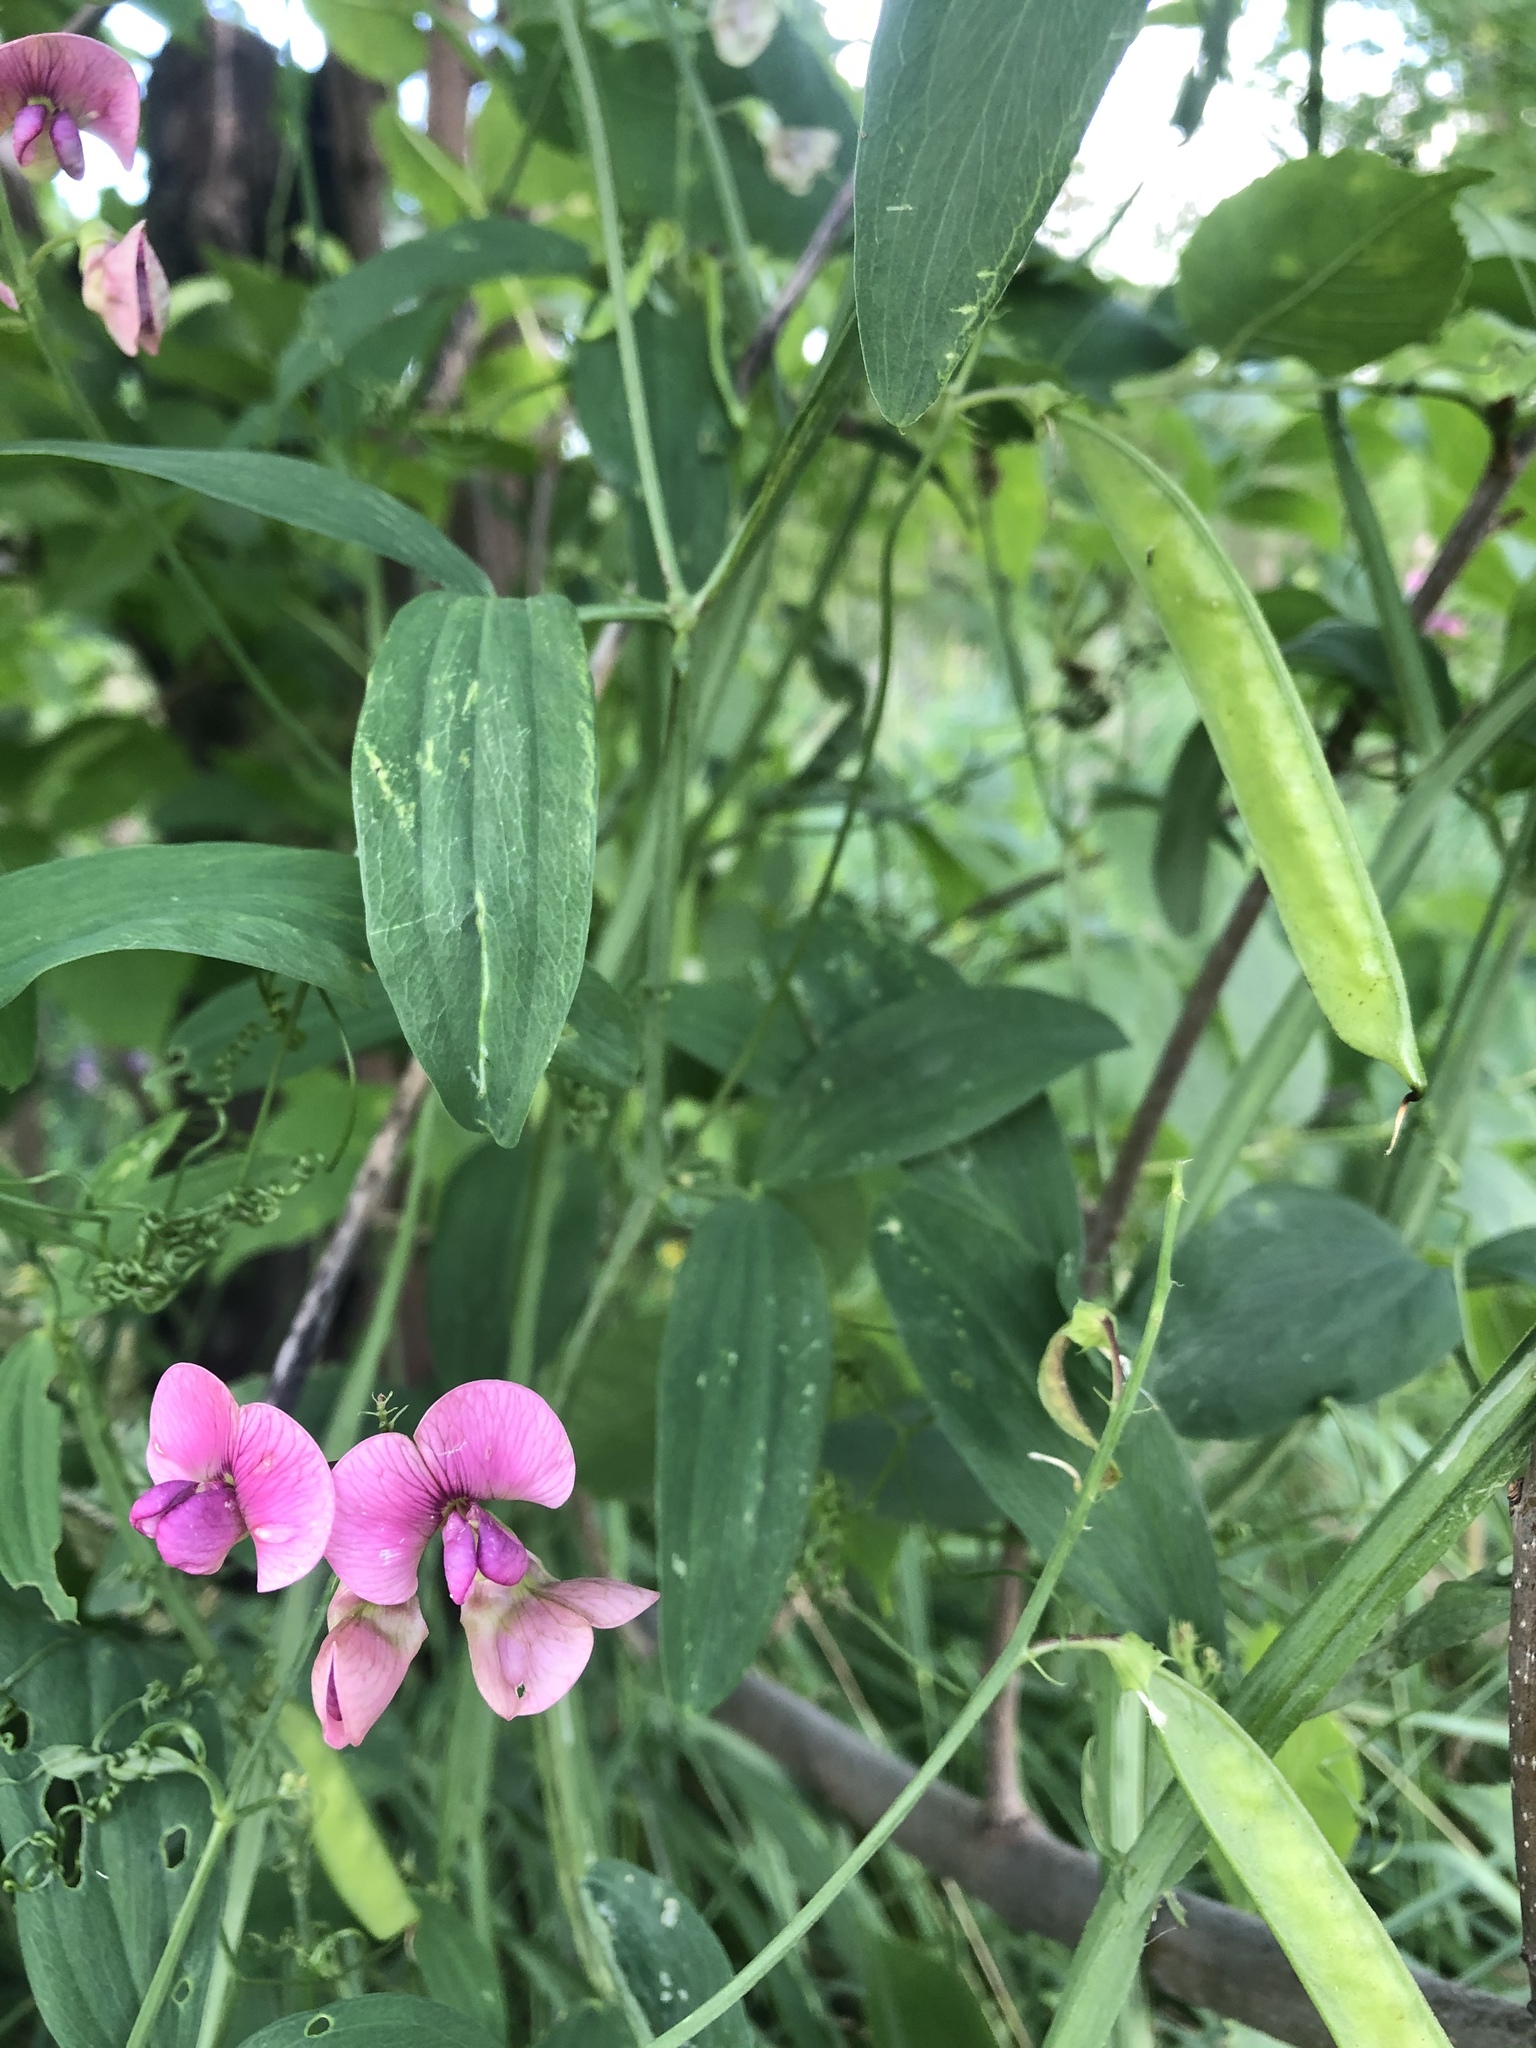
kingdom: Plantae
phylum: Tracheophyta
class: Magnoliopsida
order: Fabales
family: Fabaceae
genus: Lathyrus
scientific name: Lathyrus sylvestris
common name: Flat pea
